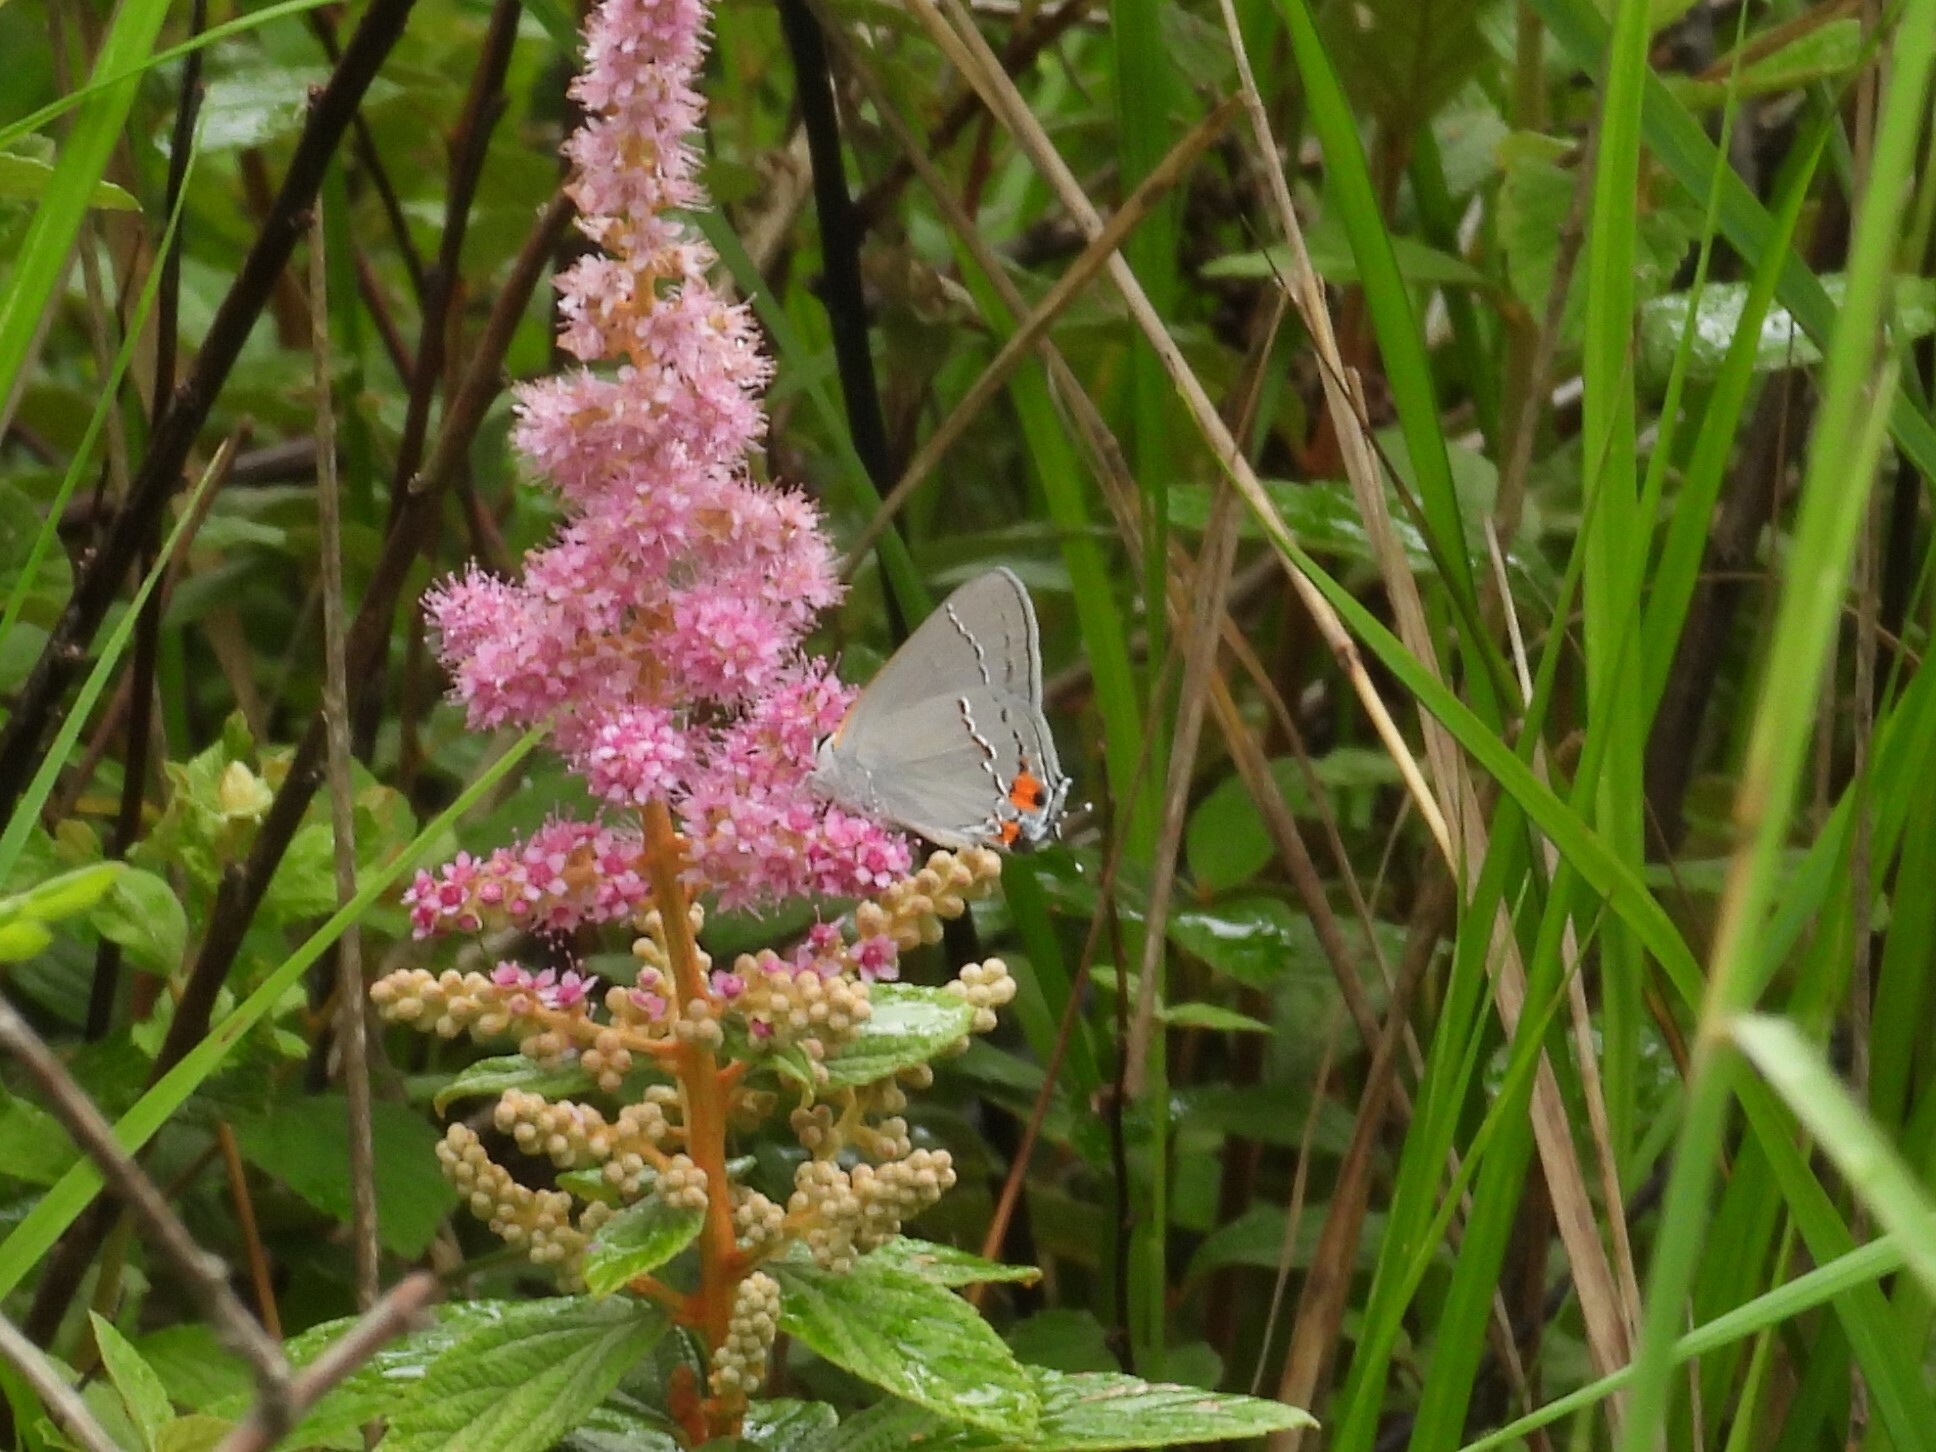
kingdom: Animalia
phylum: Arthropoda
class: Insecta
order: Lepidoptera
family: Lycaenidae
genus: Strymon
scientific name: Strymon melinus
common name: Gray hairstreak
